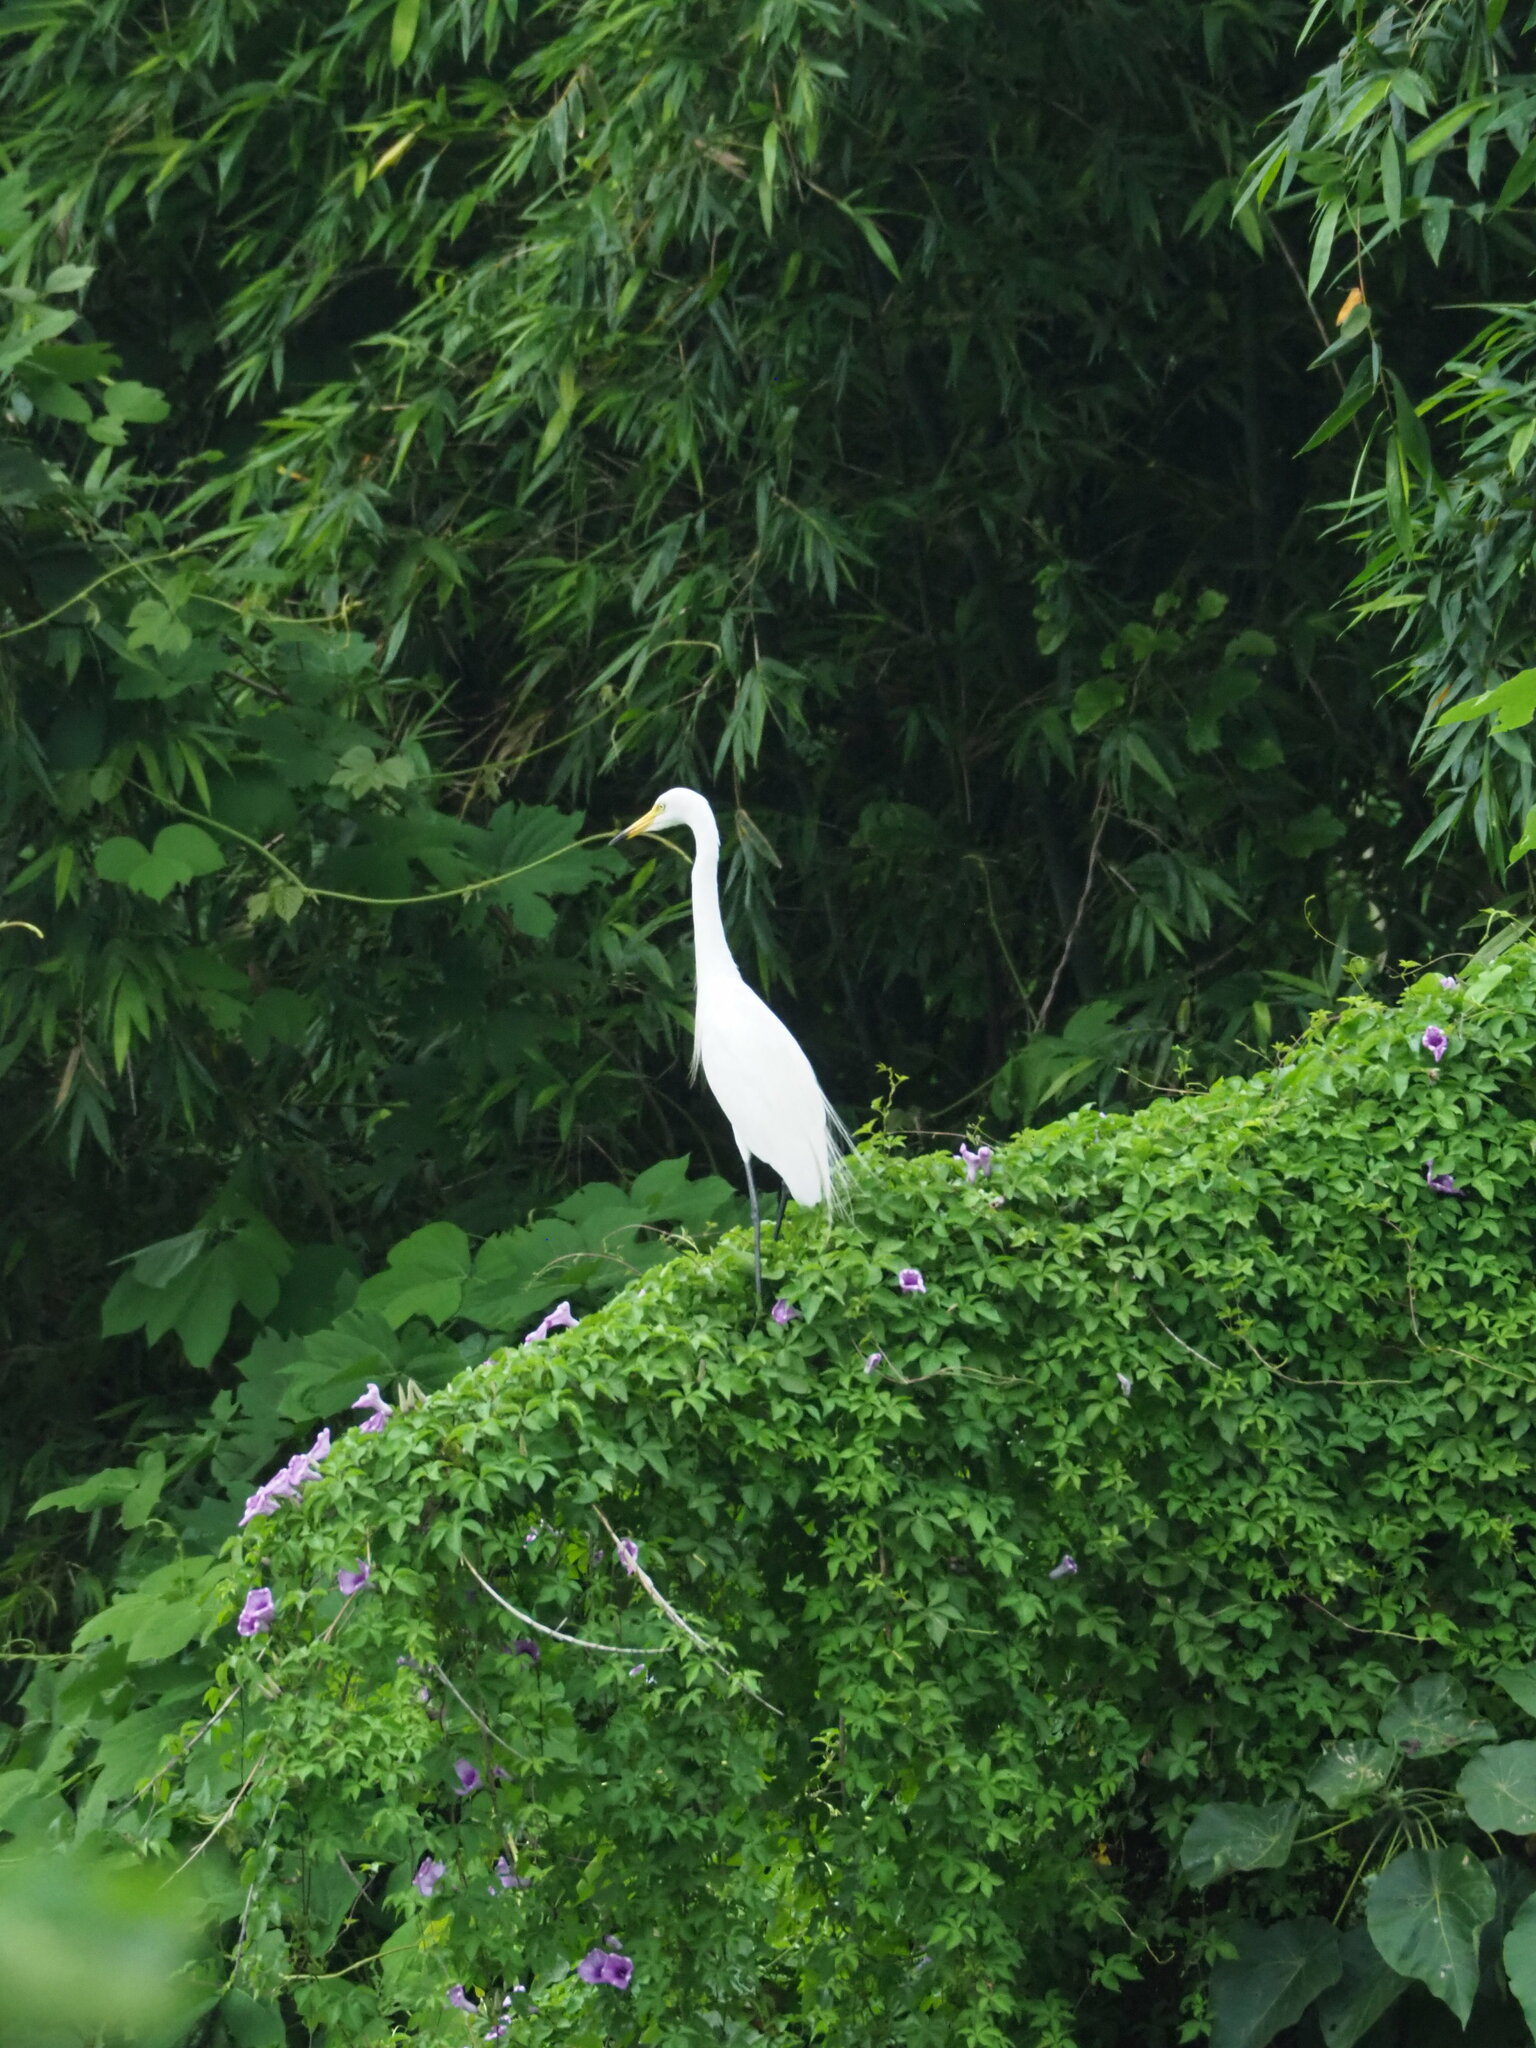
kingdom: Animalia
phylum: Chordata
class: Aves
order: Pelecaniformes
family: Ardeidae
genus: Egretta
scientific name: Egretta intermedia
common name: Intermediate egret
